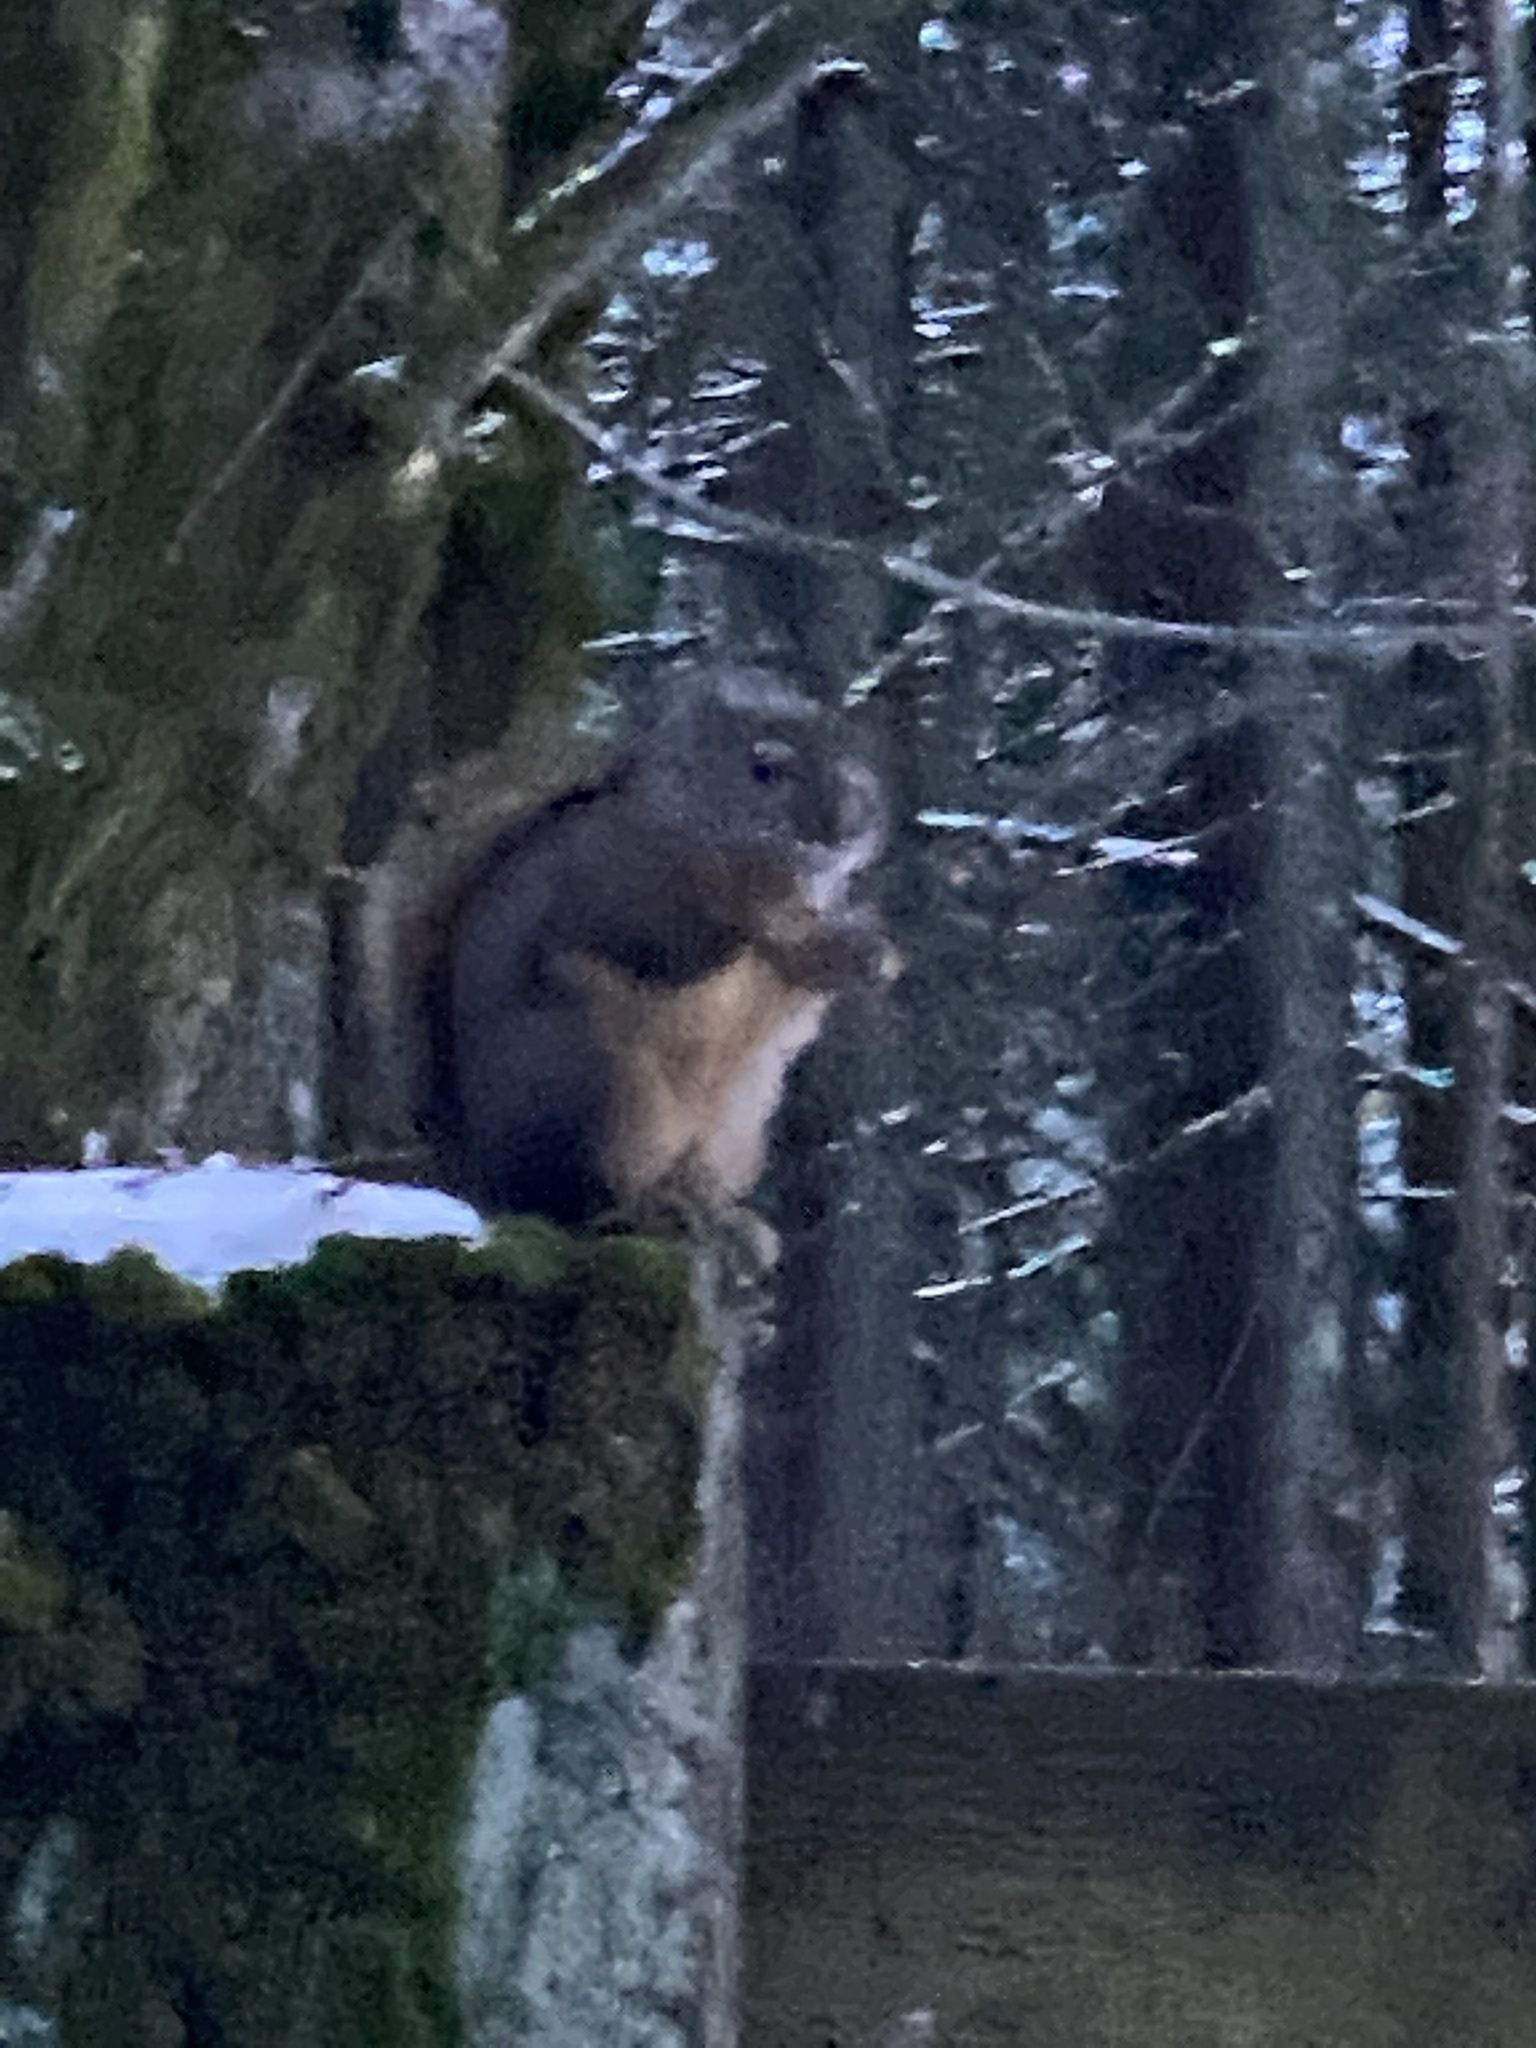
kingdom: Animalia
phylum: Chordata
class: Mammalia
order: Rodentia
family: Sciuridae
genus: Tamiasciurus
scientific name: Tamiasciurus douglasii
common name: Douglas's squirrel
